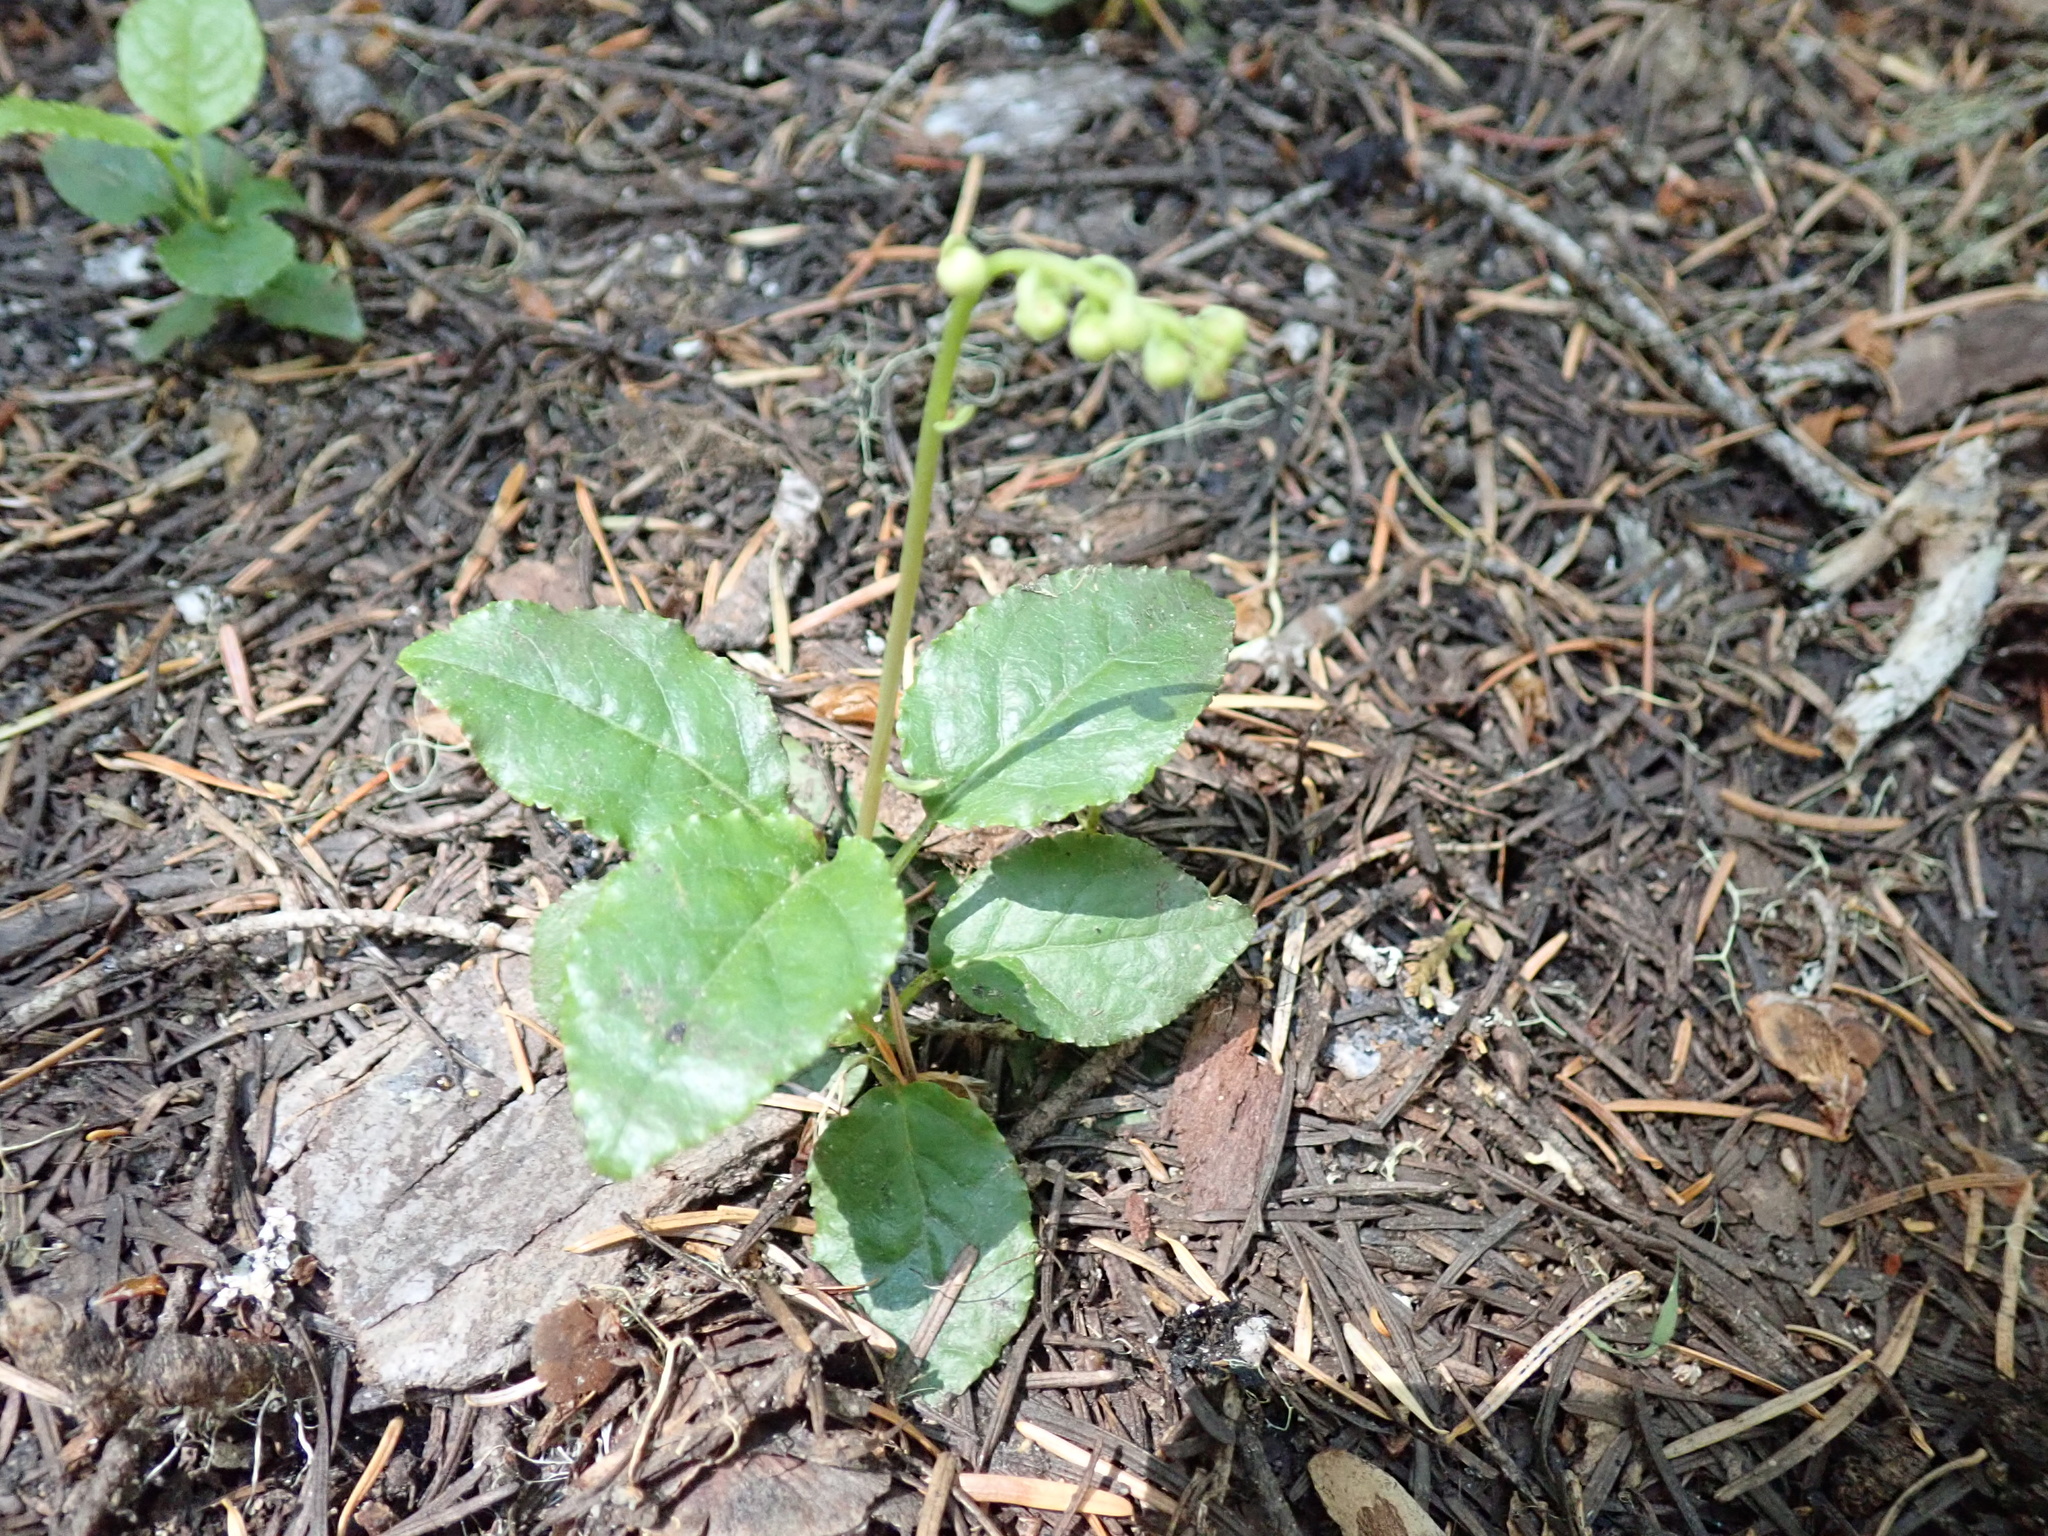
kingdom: Plantae
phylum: Tracheophyta
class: Magnoliopsida
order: Ericales
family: Ericaceae
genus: Orthilia
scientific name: Orthilia secunda
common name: One-sided orthilia
